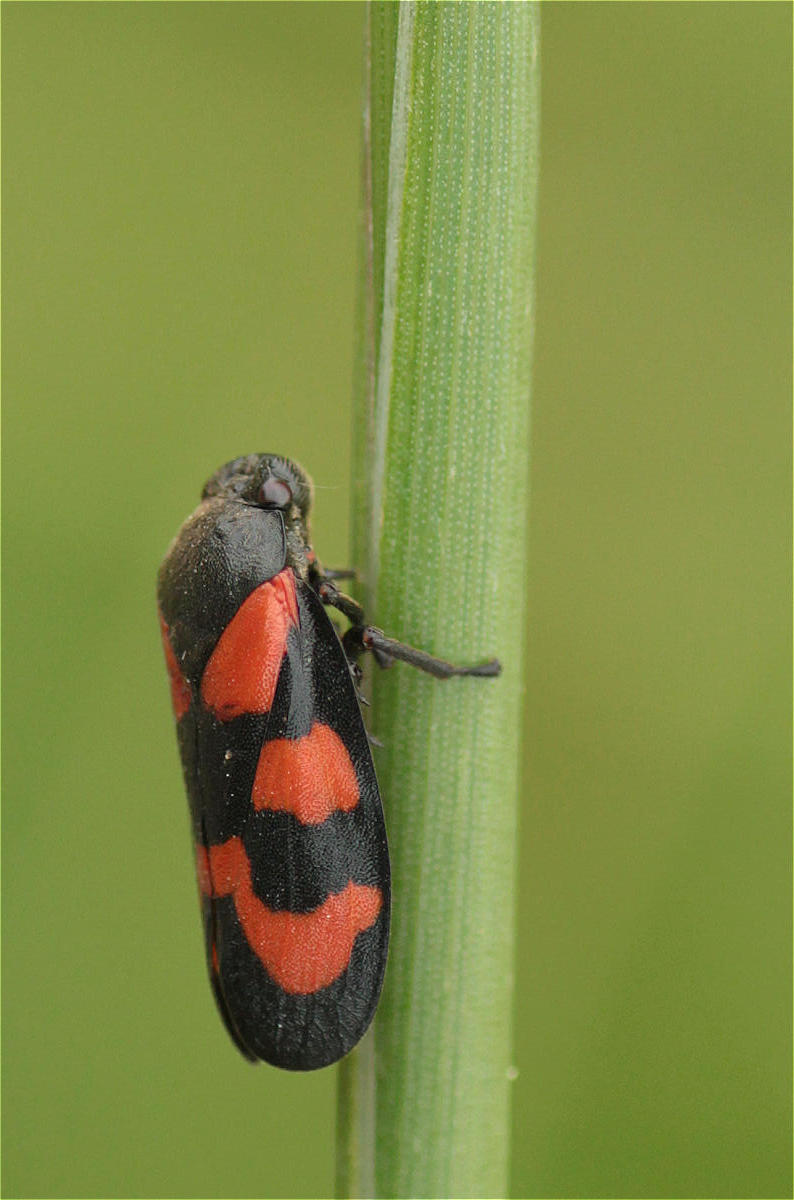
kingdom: Animalia
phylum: Arthropoda
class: Insecta
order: Hemiptera
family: Cercopidae
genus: Cercopis
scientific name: Cercopis vulnerata
